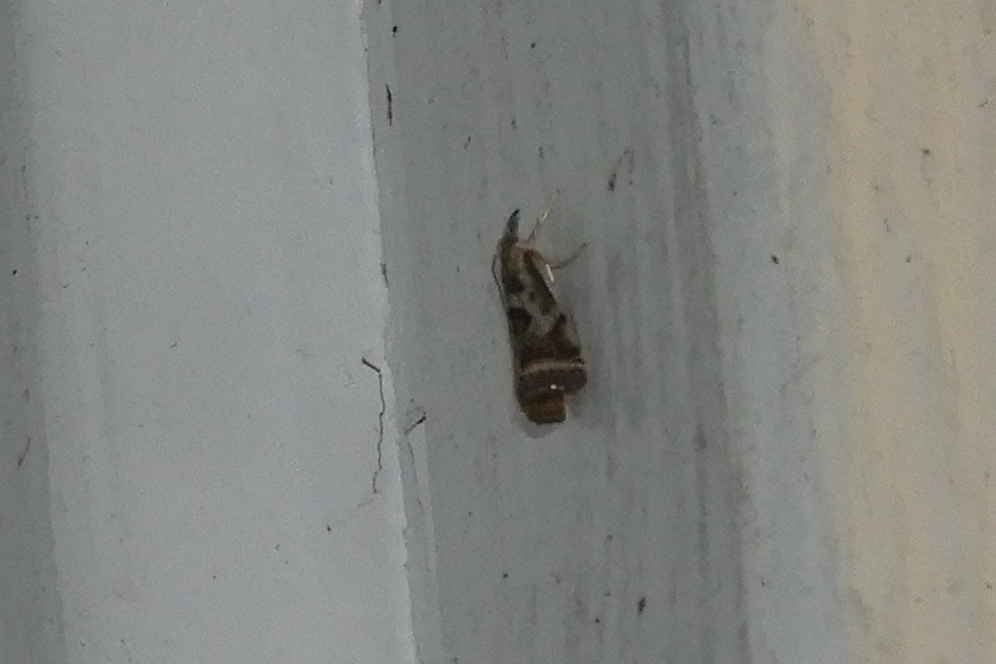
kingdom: Animalia
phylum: Arthropoda
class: Insecta
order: Lepidoptera
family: Crambidae
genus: Microcrambus
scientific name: Microcrambus elegans
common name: Elegant grass-veneer
